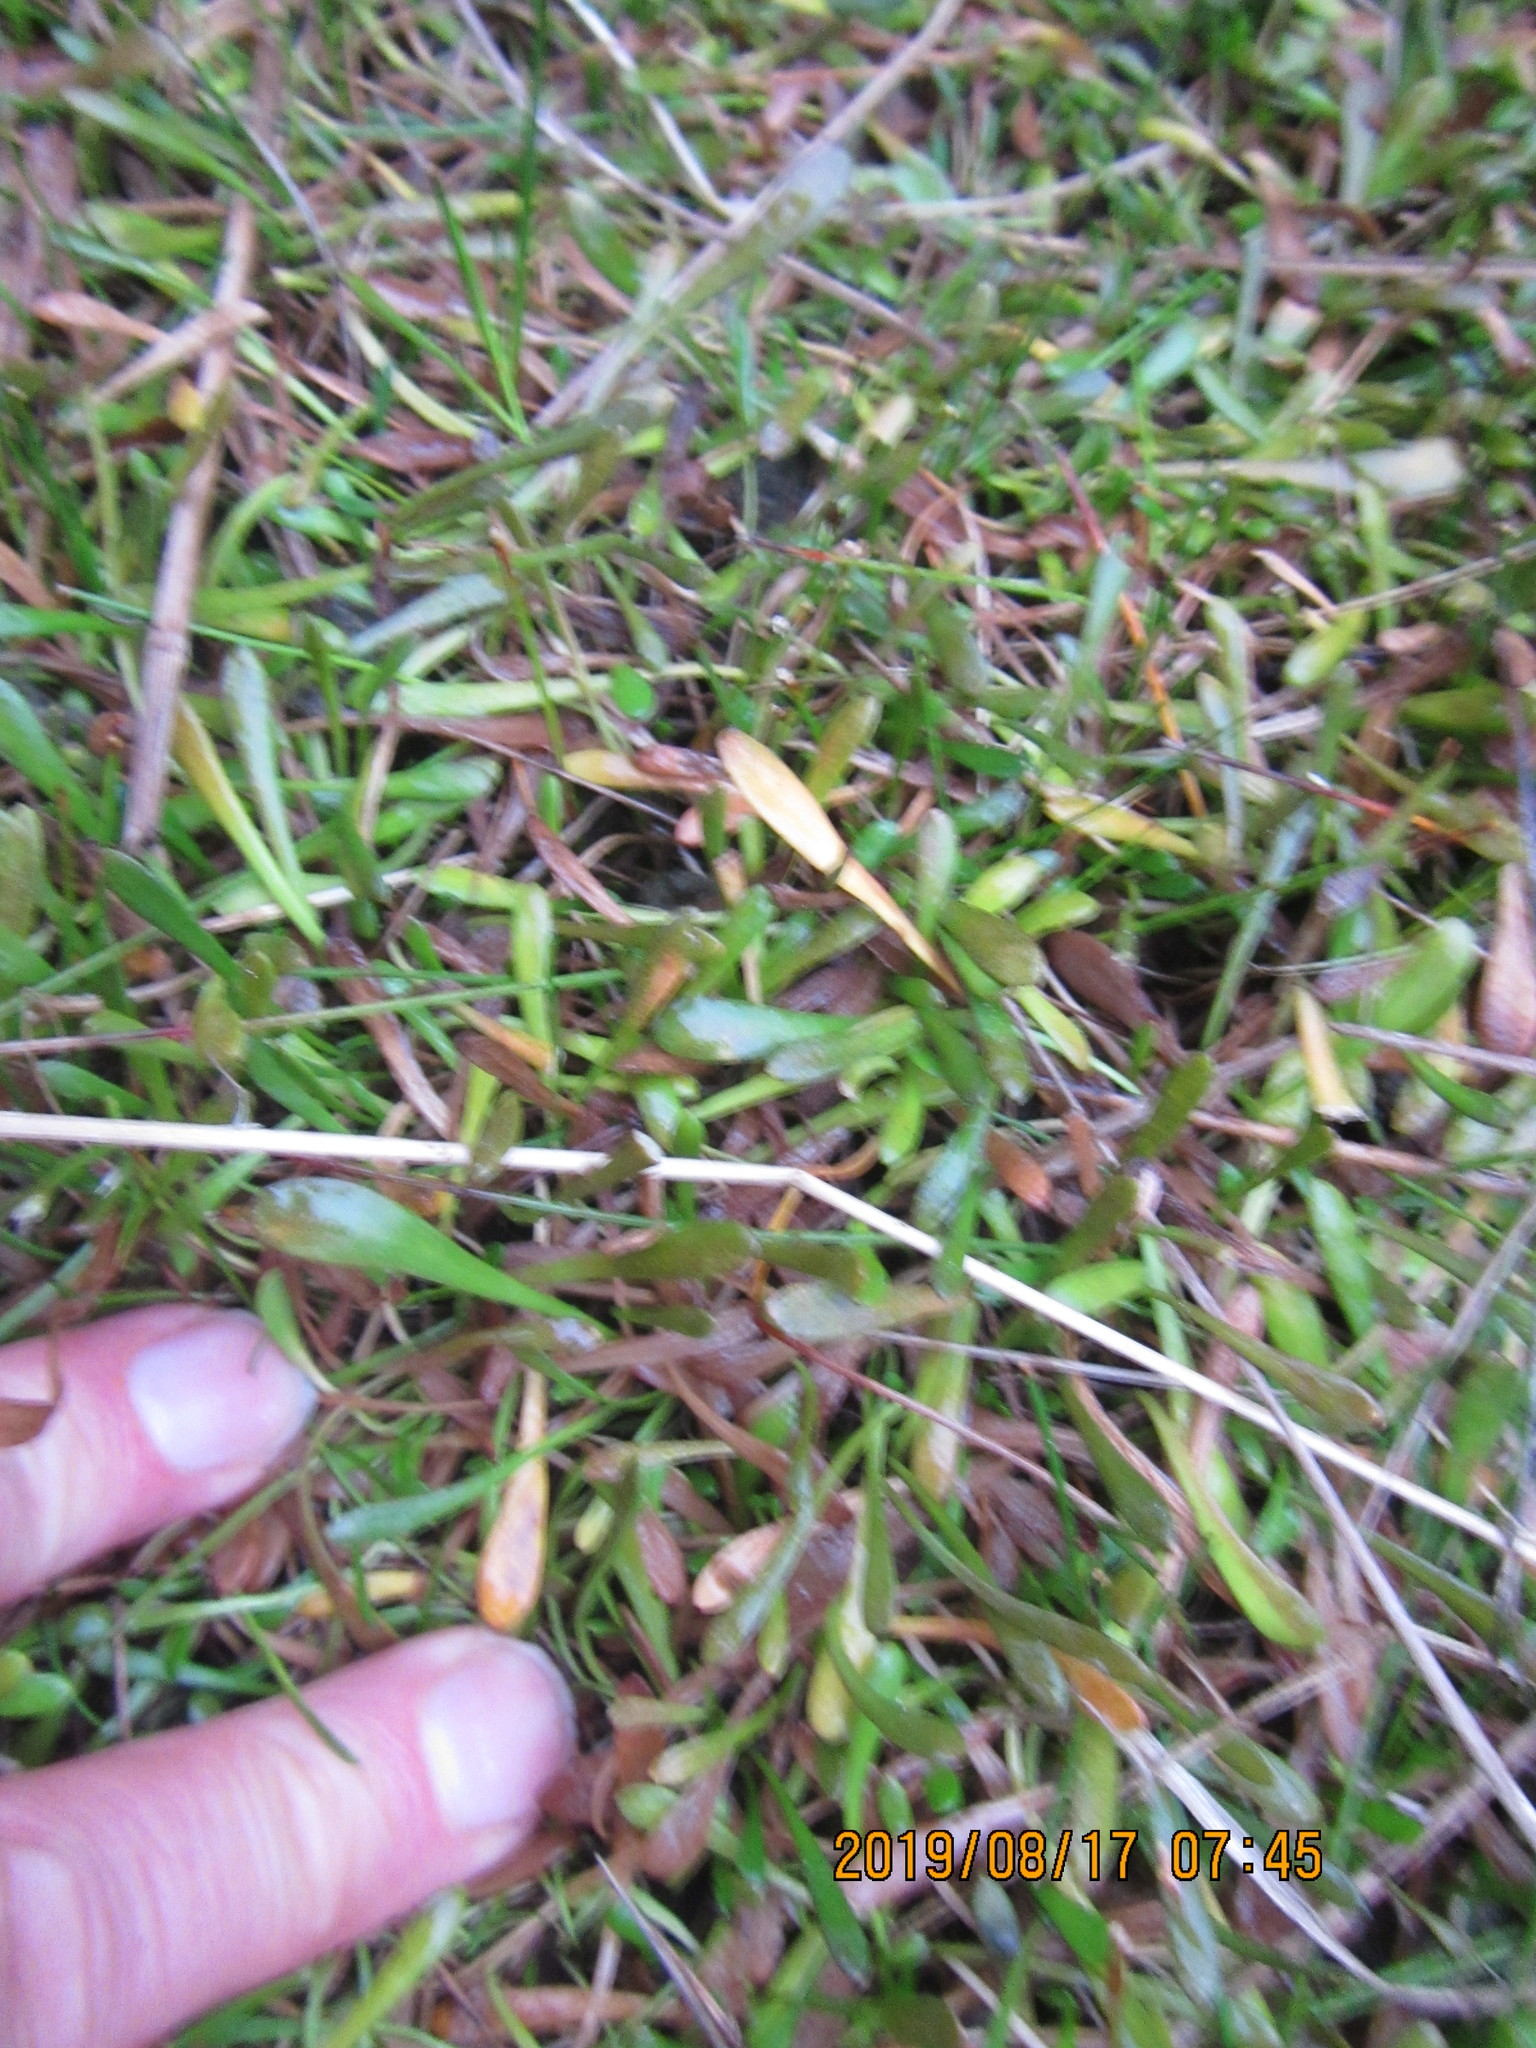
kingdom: Plantae
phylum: Tracheophyta
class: Magnoliopsida
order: Asterales
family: Goodeniaceae
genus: Goodenia
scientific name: Goodenia radicans
